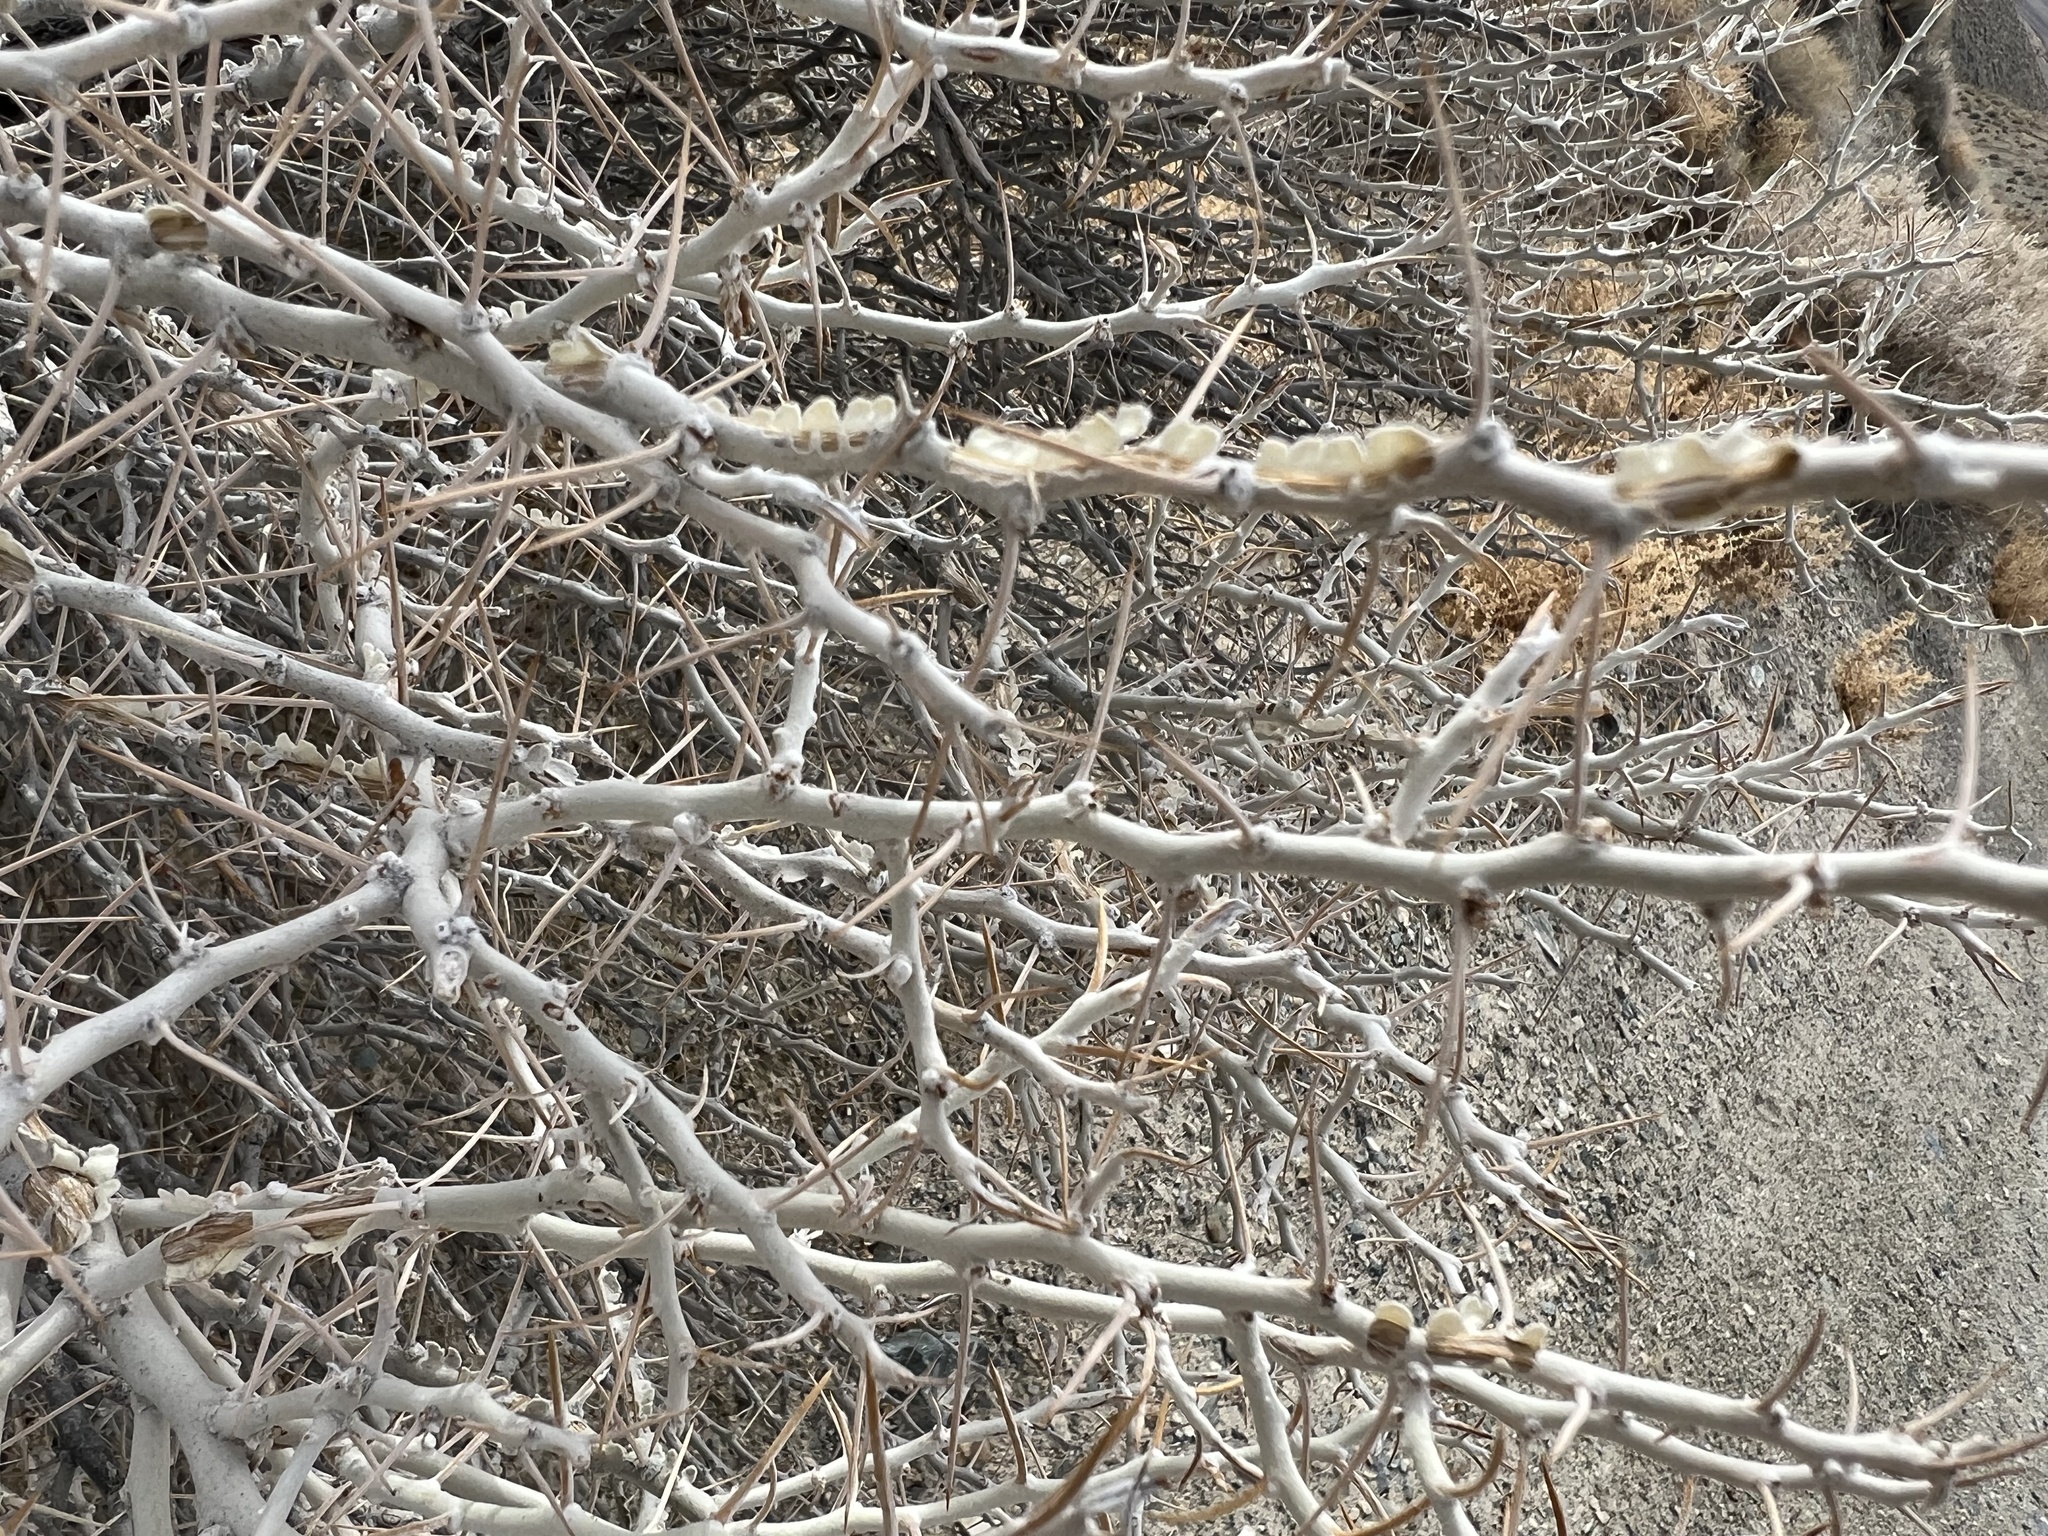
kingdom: Plantae
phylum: Tracheophyta
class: Magnoliopsida
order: Asterales
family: Asteraceae
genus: Tetradymia
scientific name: Tetradymia axillaris
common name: Long-spine horsebrush
